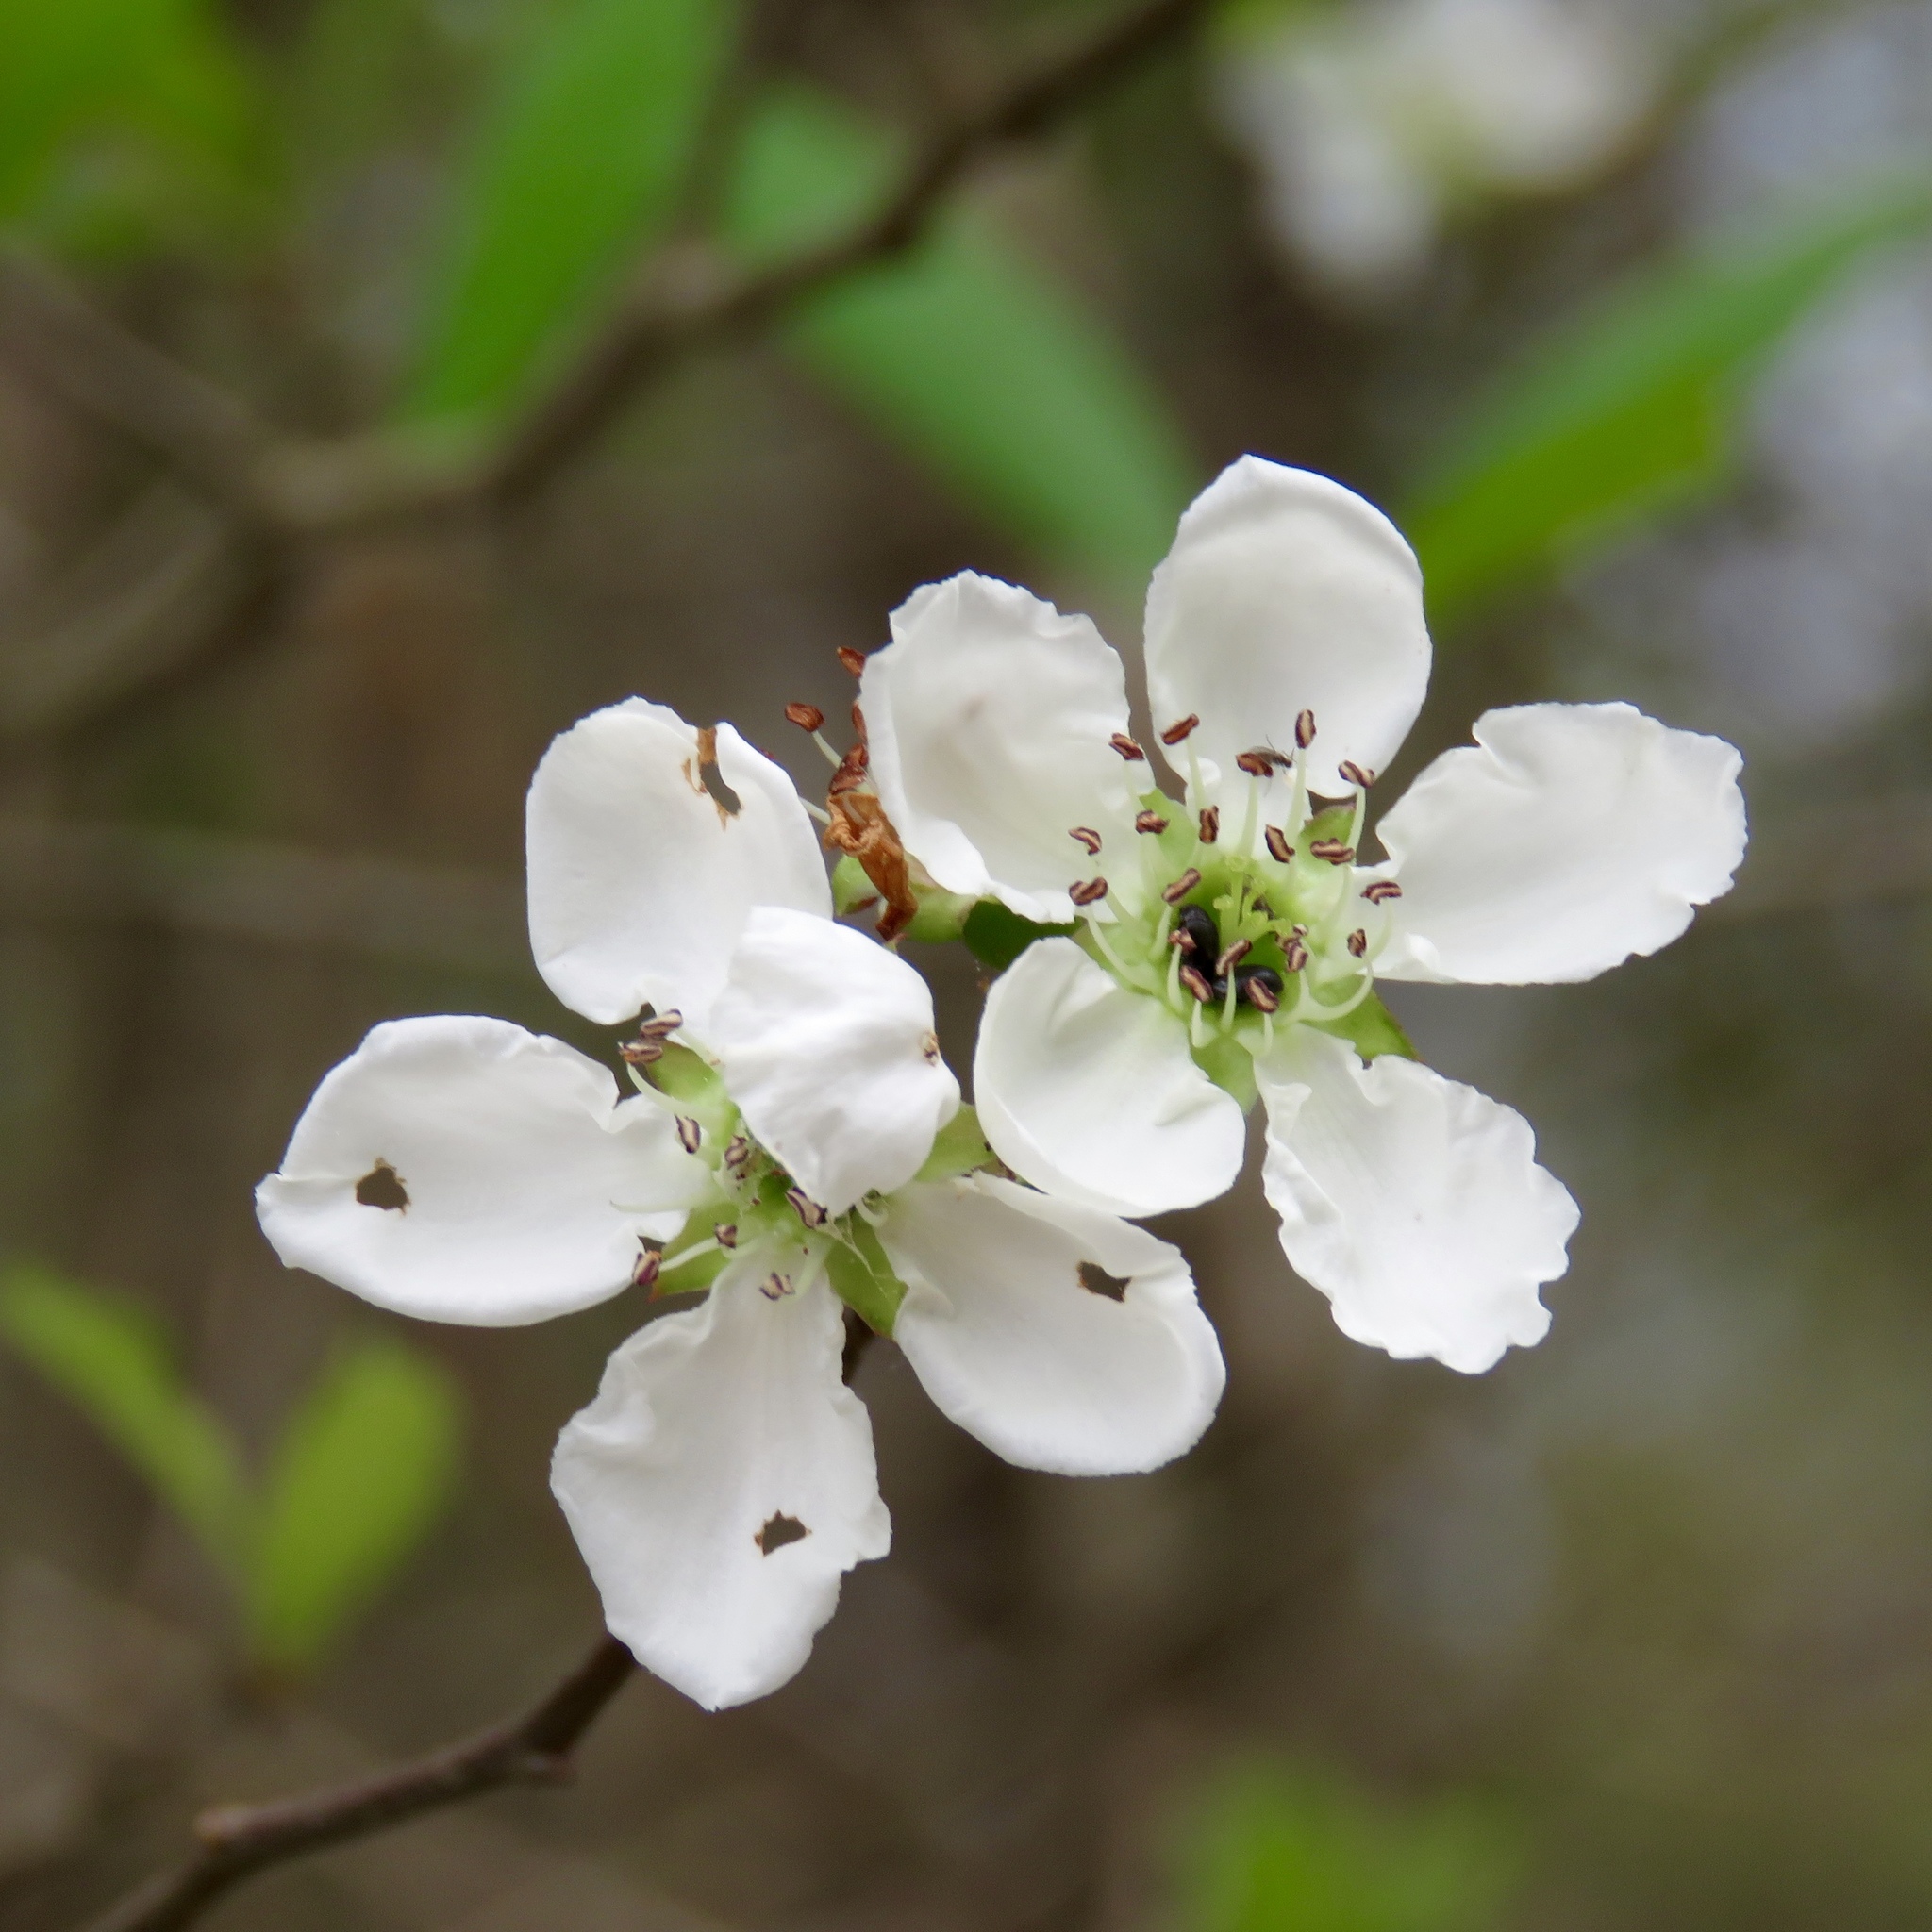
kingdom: Plantae
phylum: Tracheophyta
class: Magnoliopsida
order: Rosales
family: Rosaceae
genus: Crataegus
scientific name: Crataegus opaca
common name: Apple haw
